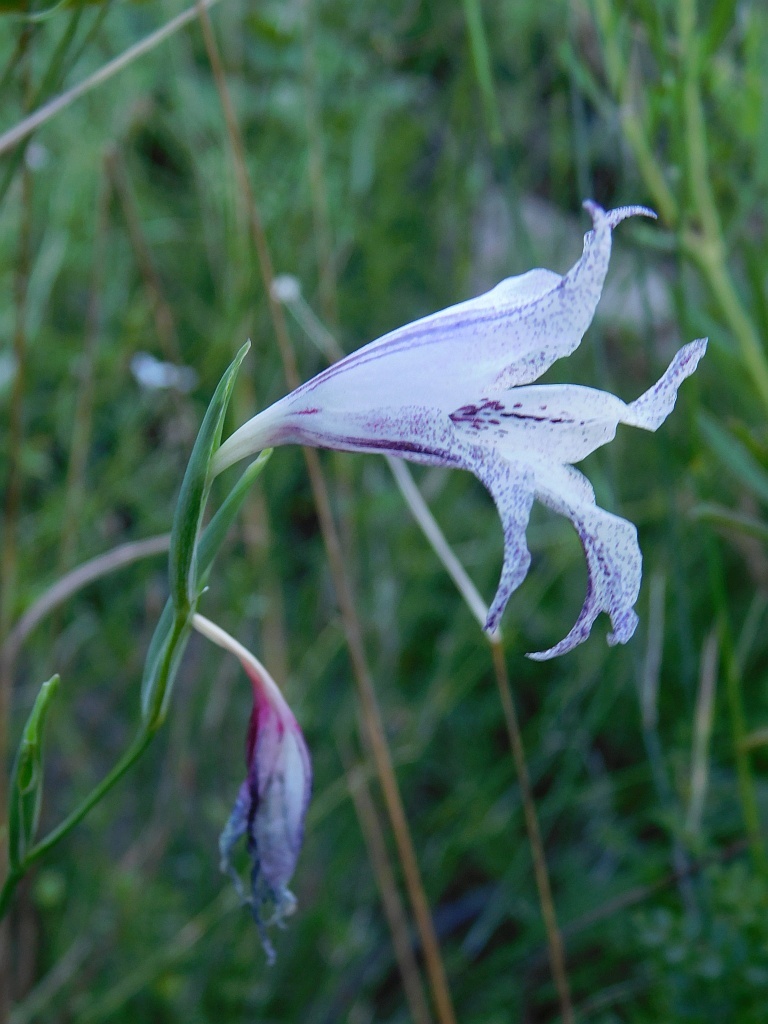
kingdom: Plantae
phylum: Tracheophyta
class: Liliopsida
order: Asparagales
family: Iridaceae
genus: Gladiolus
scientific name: Gladiolus maculatus
